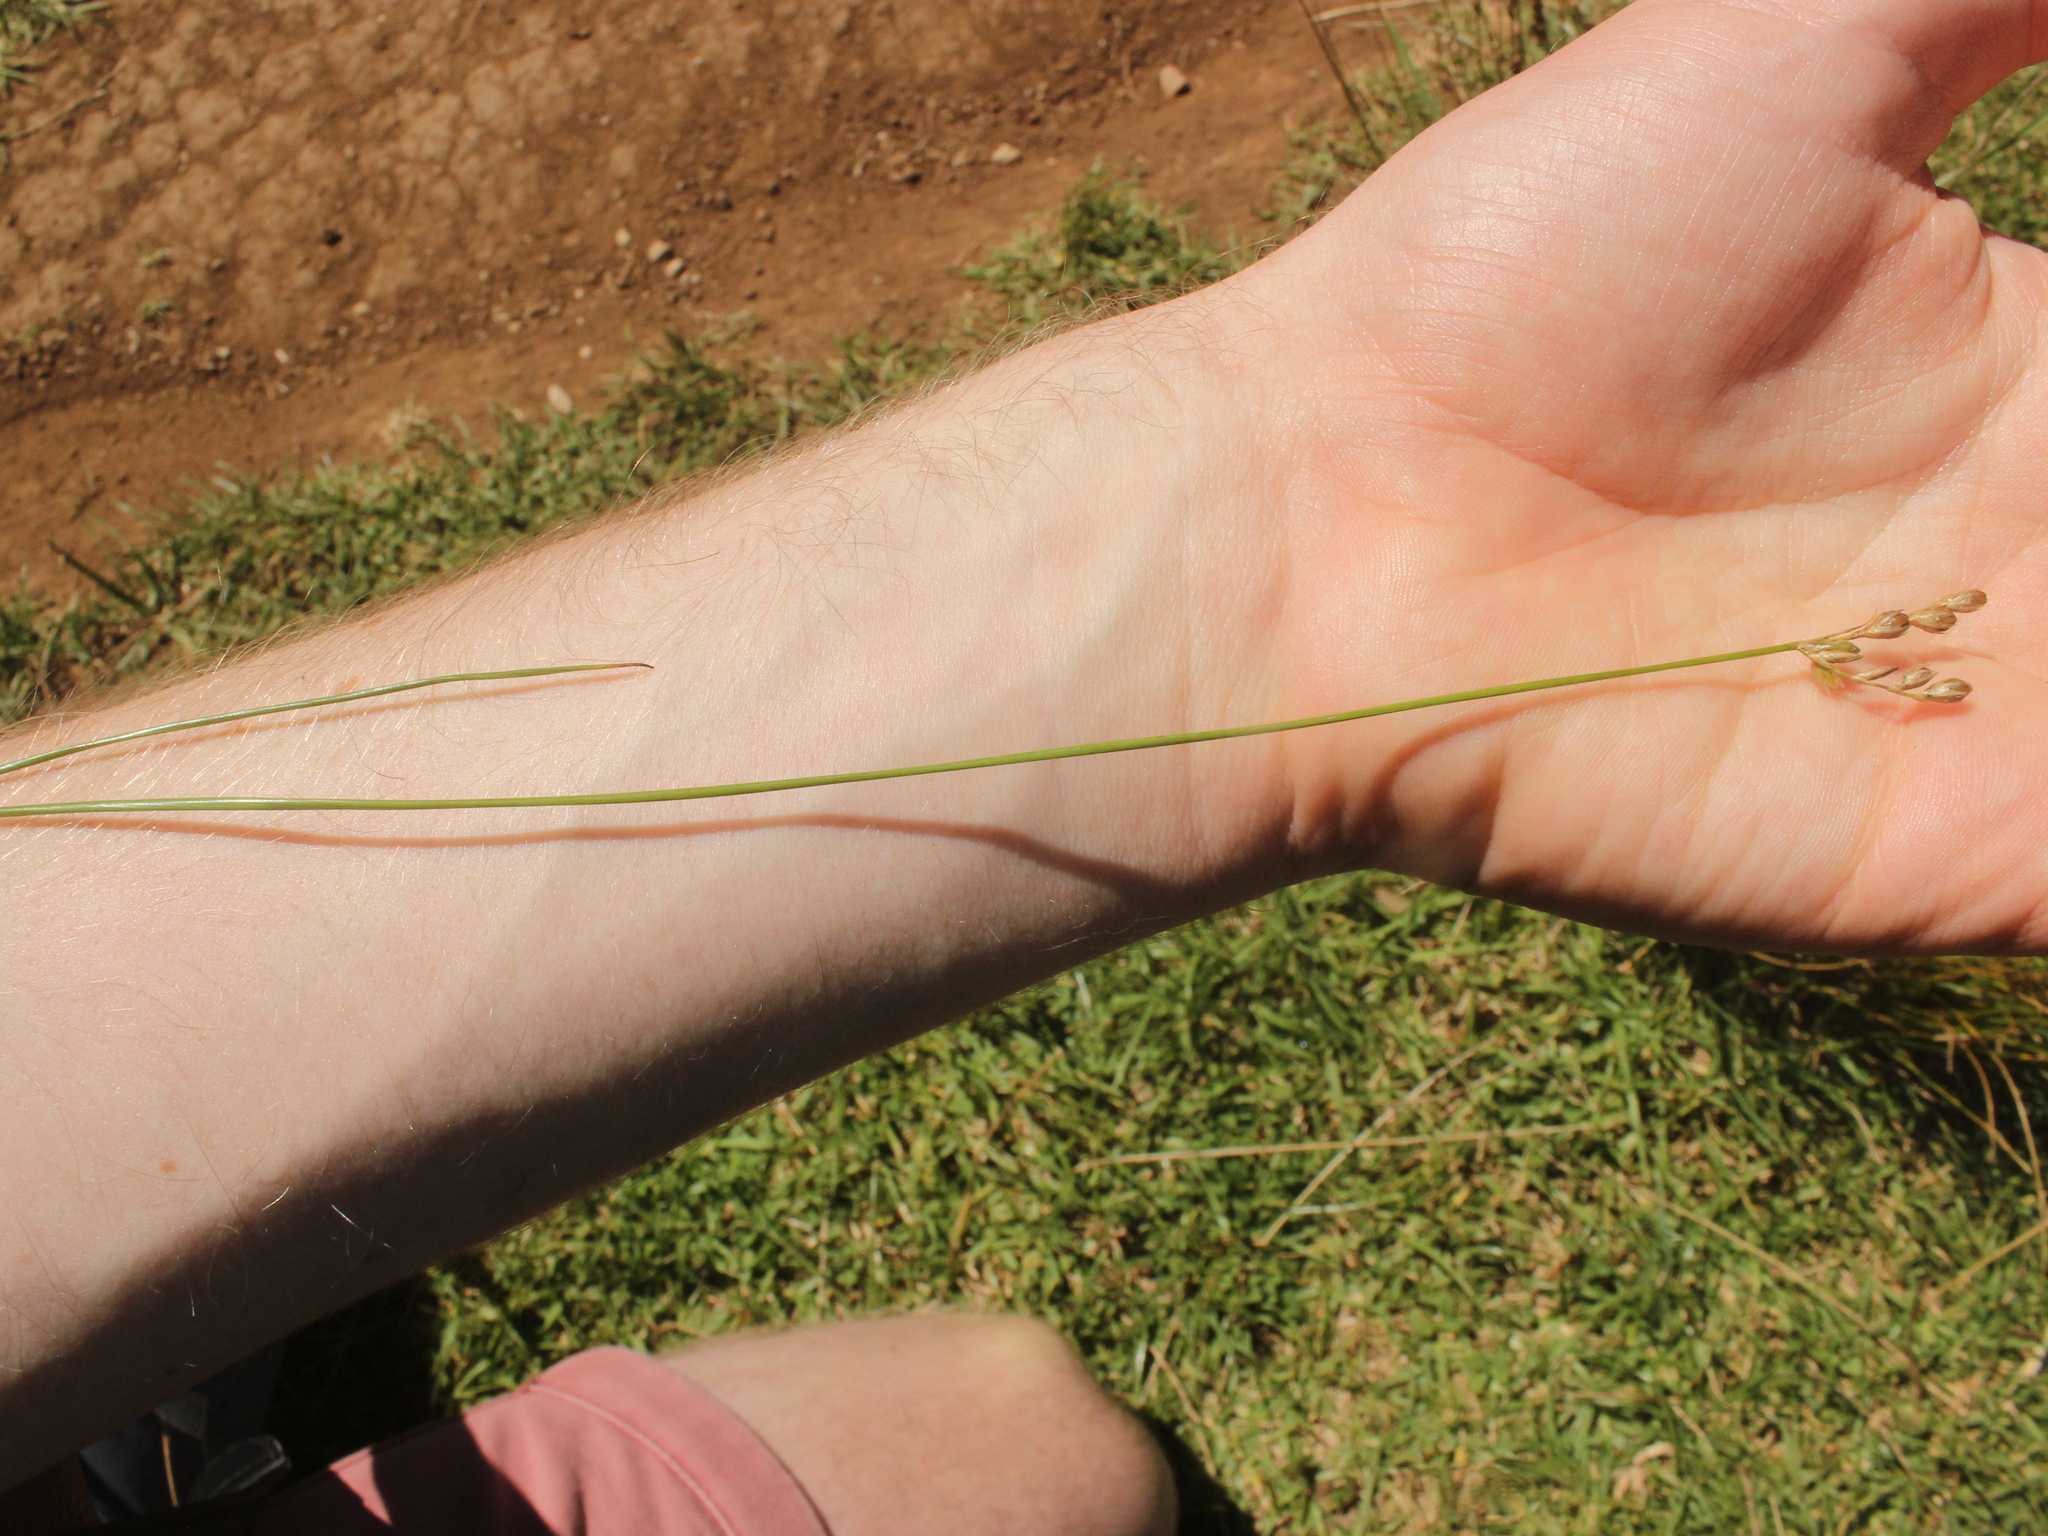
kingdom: Plantae
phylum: Tracheophyta
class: Liliopsida
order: Poales
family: Juncaceae
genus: Juncus
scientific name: Juncus imbricatus
